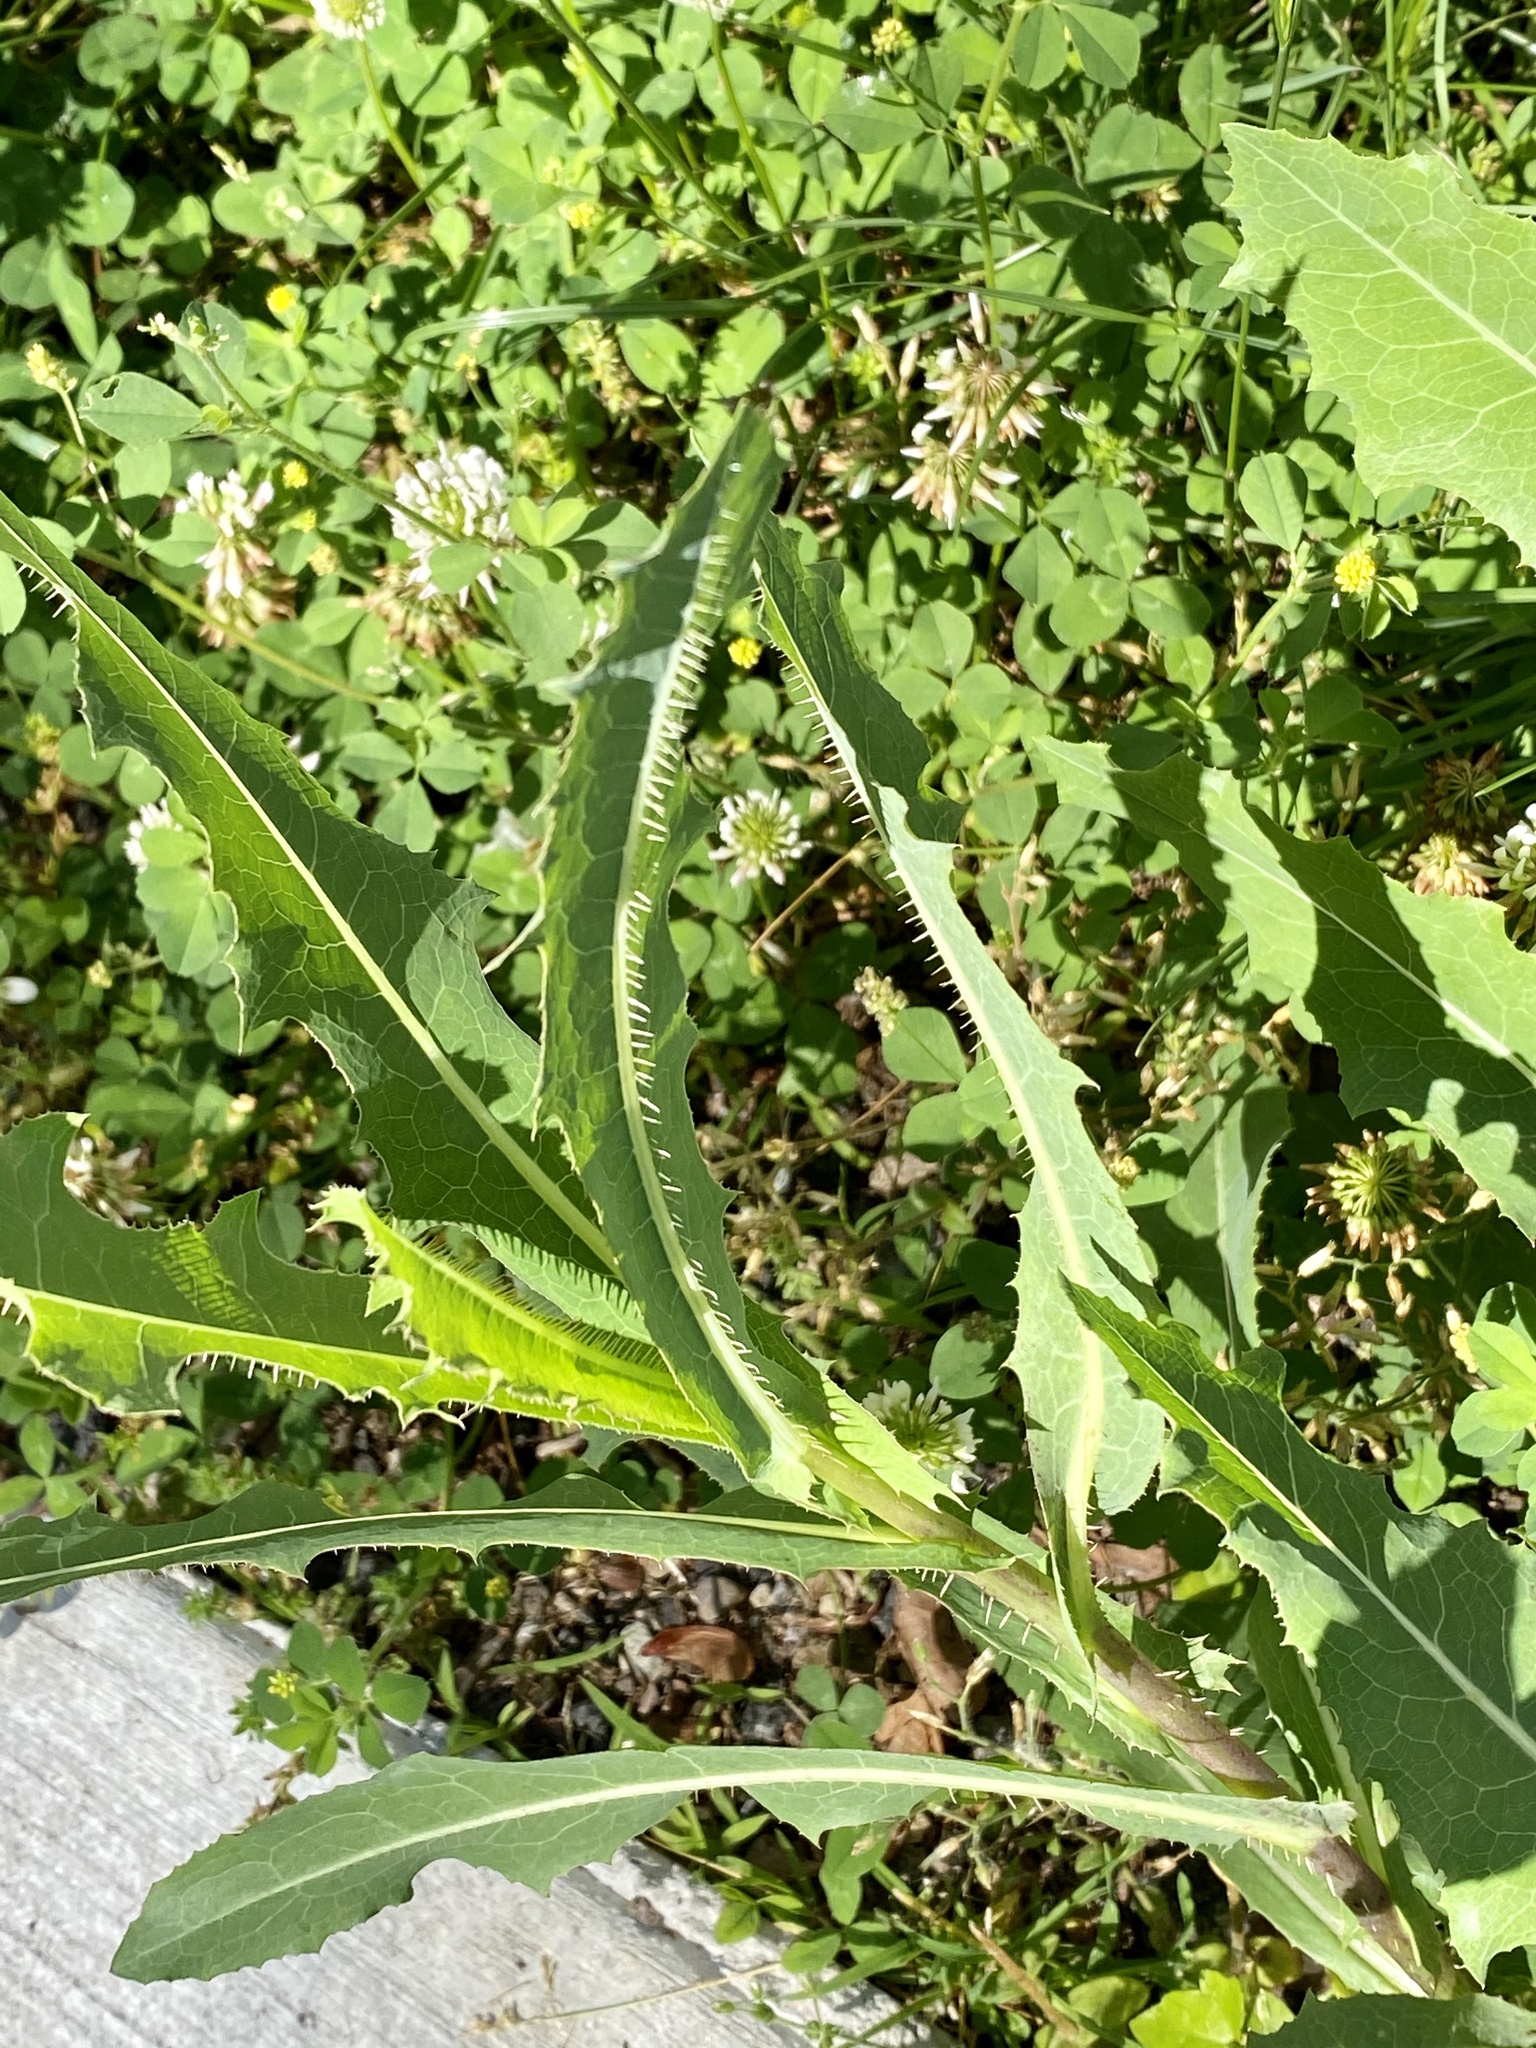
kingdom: Plantae
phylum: Tracheophyta
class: Magnoliopsida
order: Asterales
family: Asteraceae
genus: Lactuca
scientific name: Lactuca serriola
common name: Prickly lettuce
